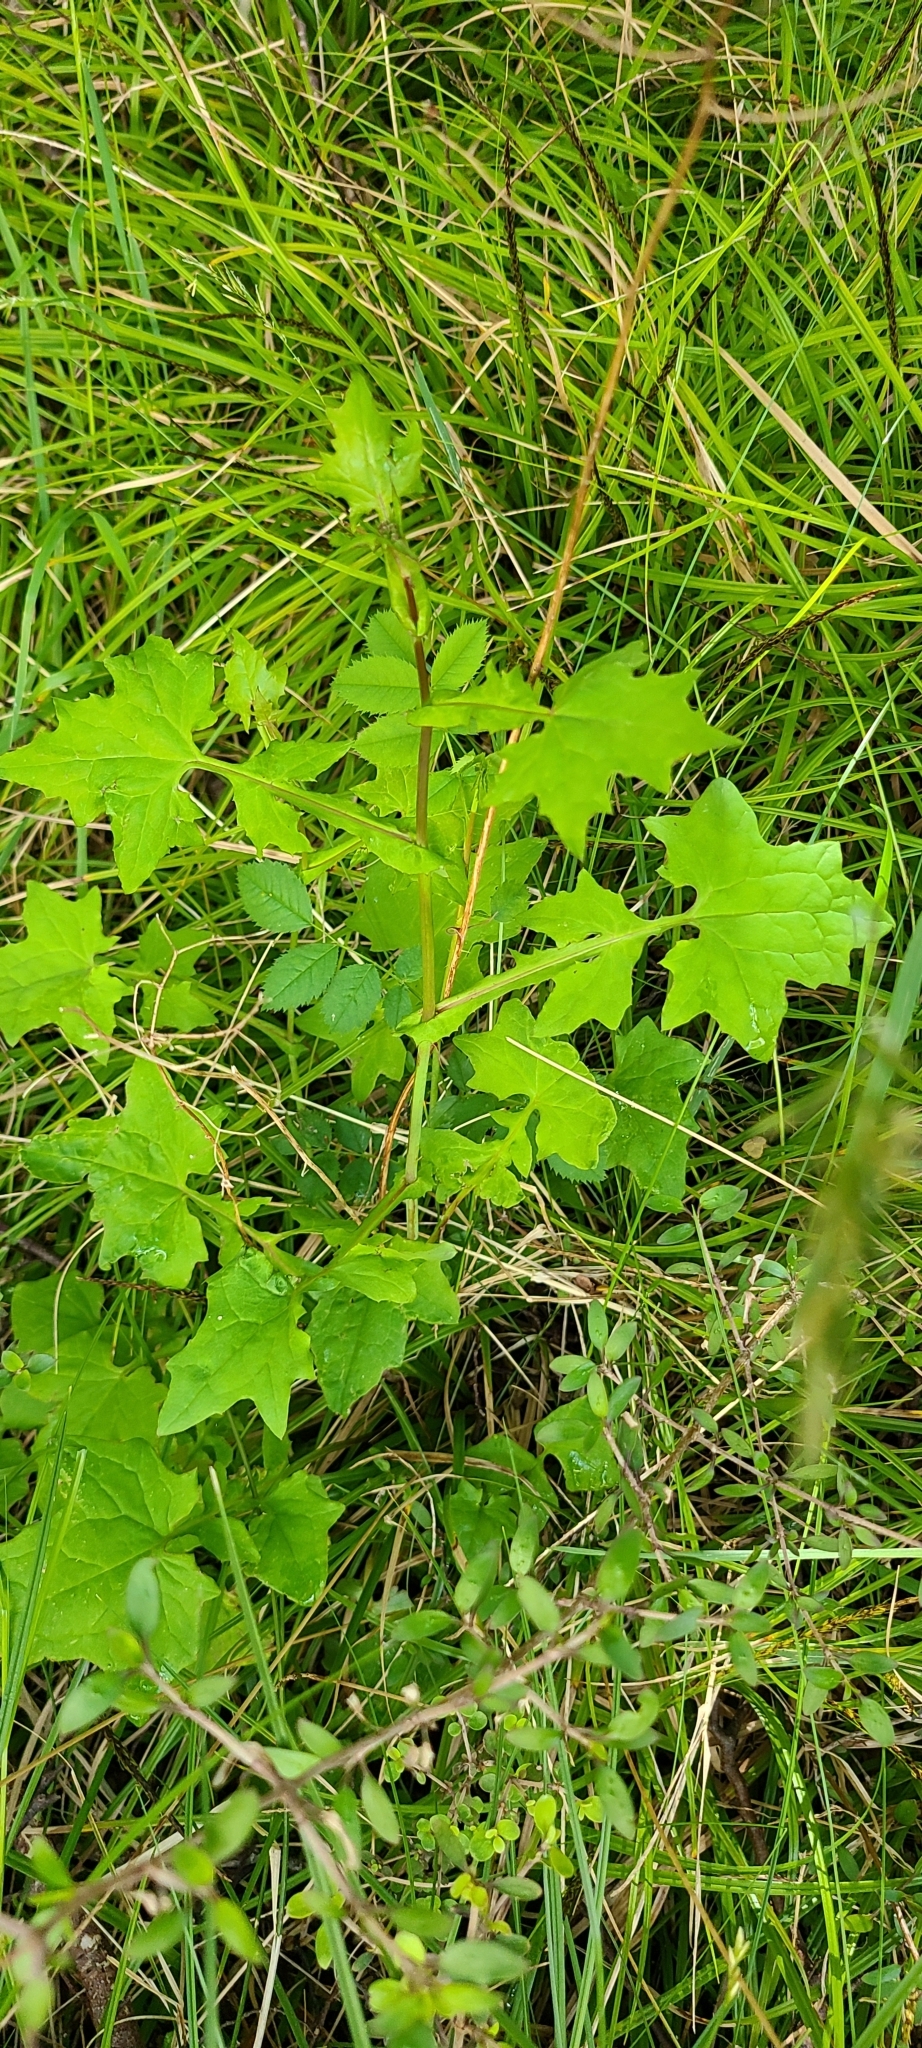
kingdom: Plantae
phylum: Tracheophyta
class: Magnoliopsida
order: Asterales
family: Asteraceae
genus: Mycelis
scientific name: Mycelis muralis
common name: Wall lettuce
